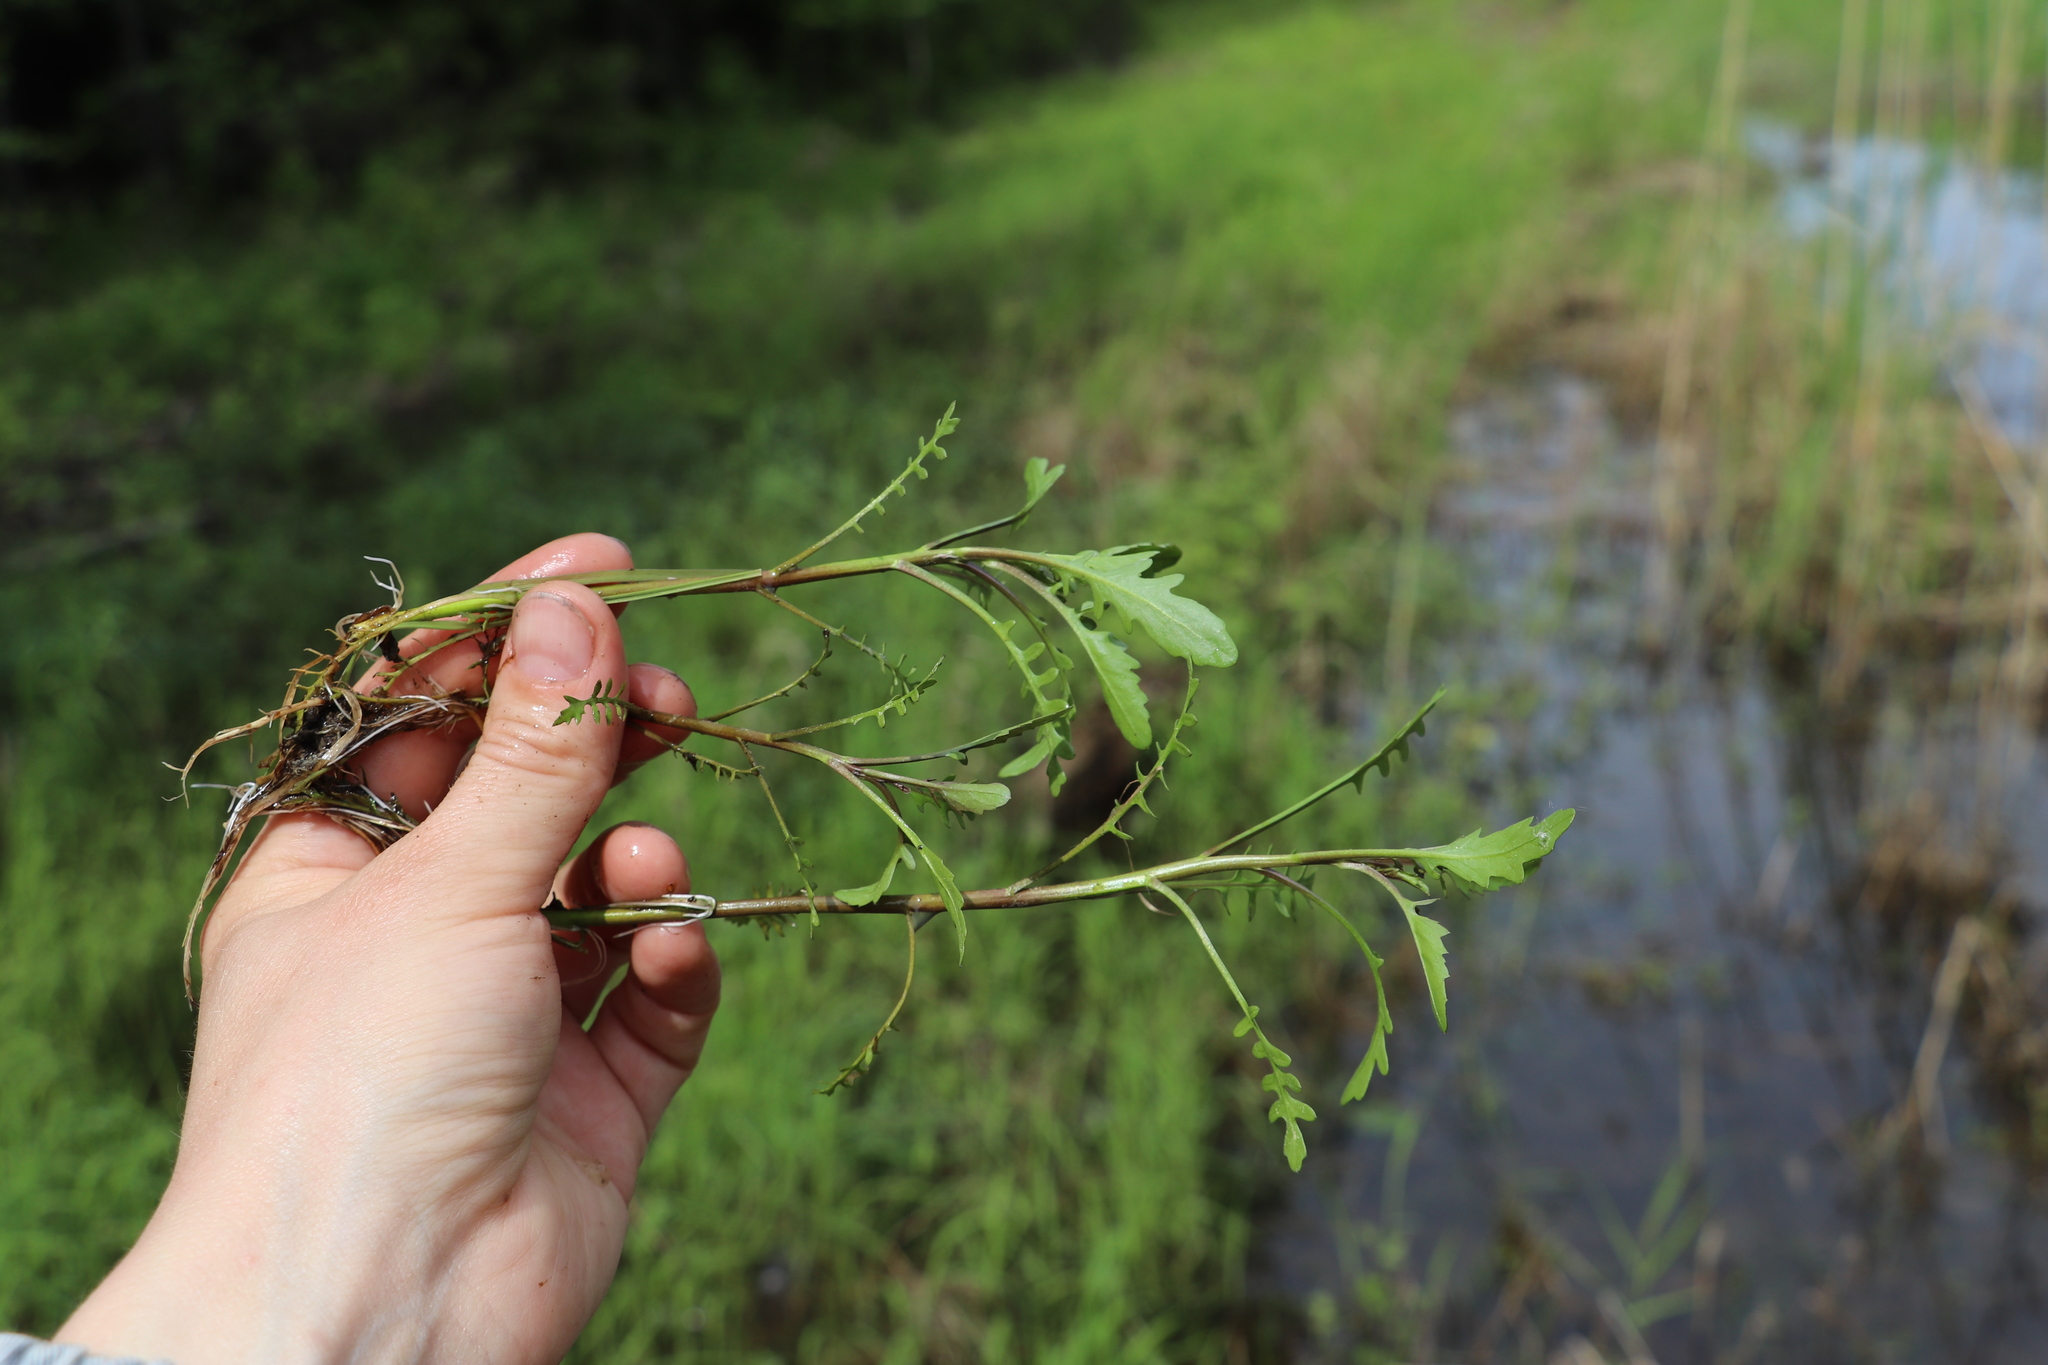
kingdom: Plantae
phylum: Tracheophyta
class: Magnoliopsida
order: Brassicales
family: Brassicaceae
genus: Rorippa
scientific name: Rorippa palustris
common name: Marsh yellow-cress
